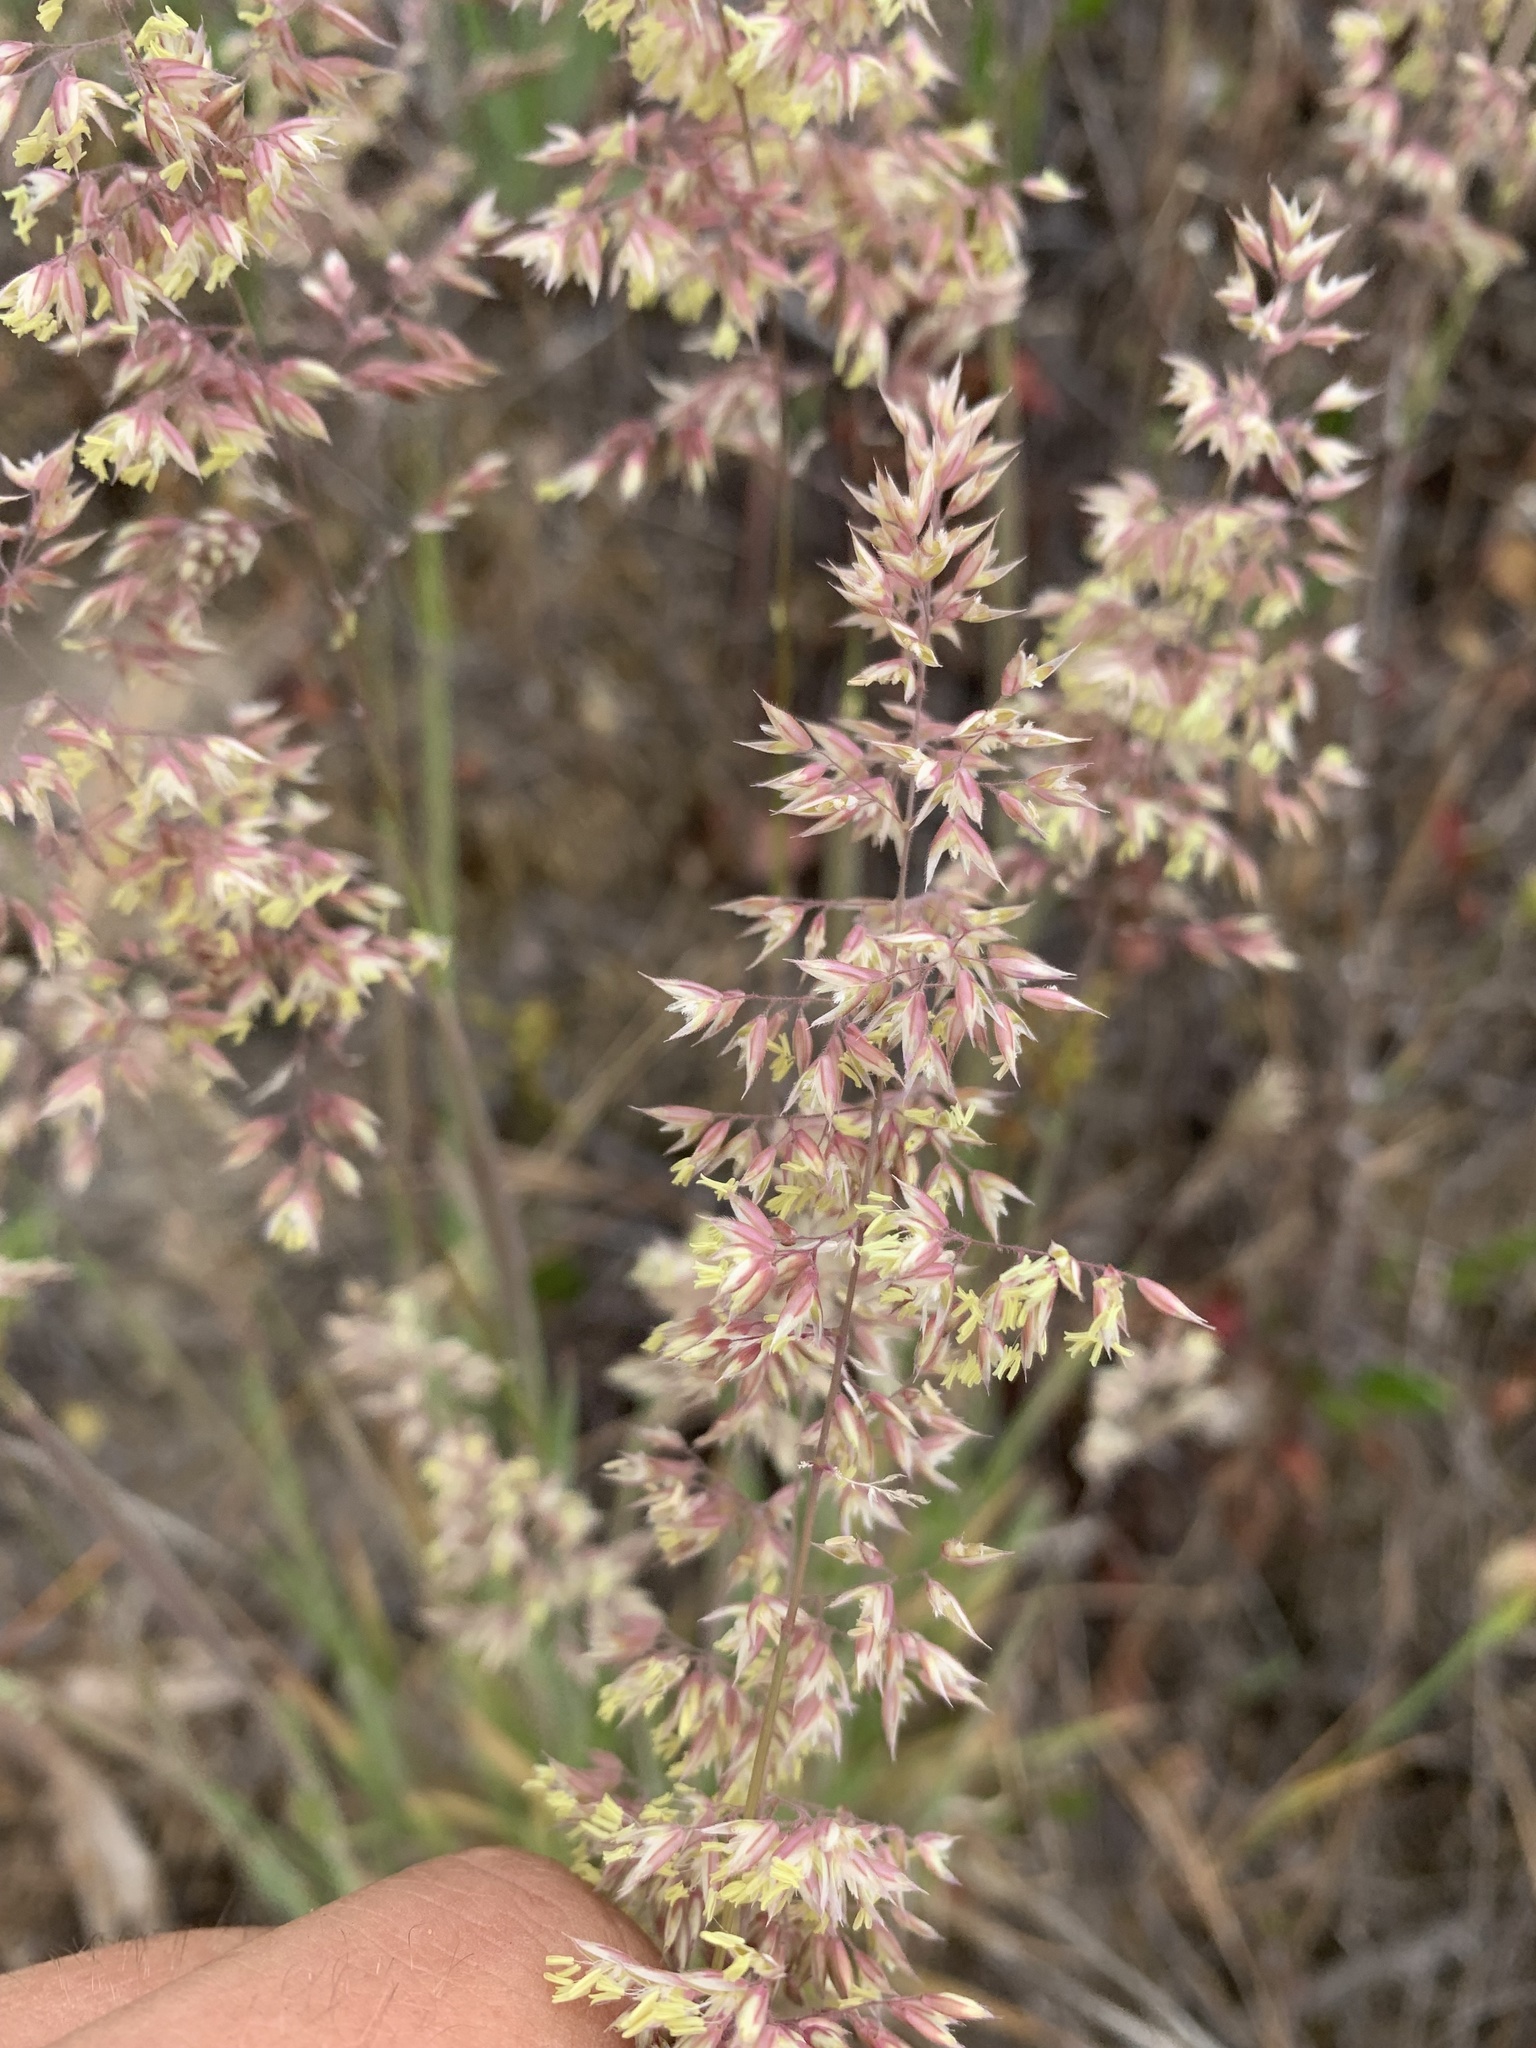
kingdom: Plantae
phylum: Tracheophyta
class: Liliopsida
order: Poales
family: Poaceae
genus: Holcus
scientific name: Holcus lanatus
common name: Yorkshire-fog
